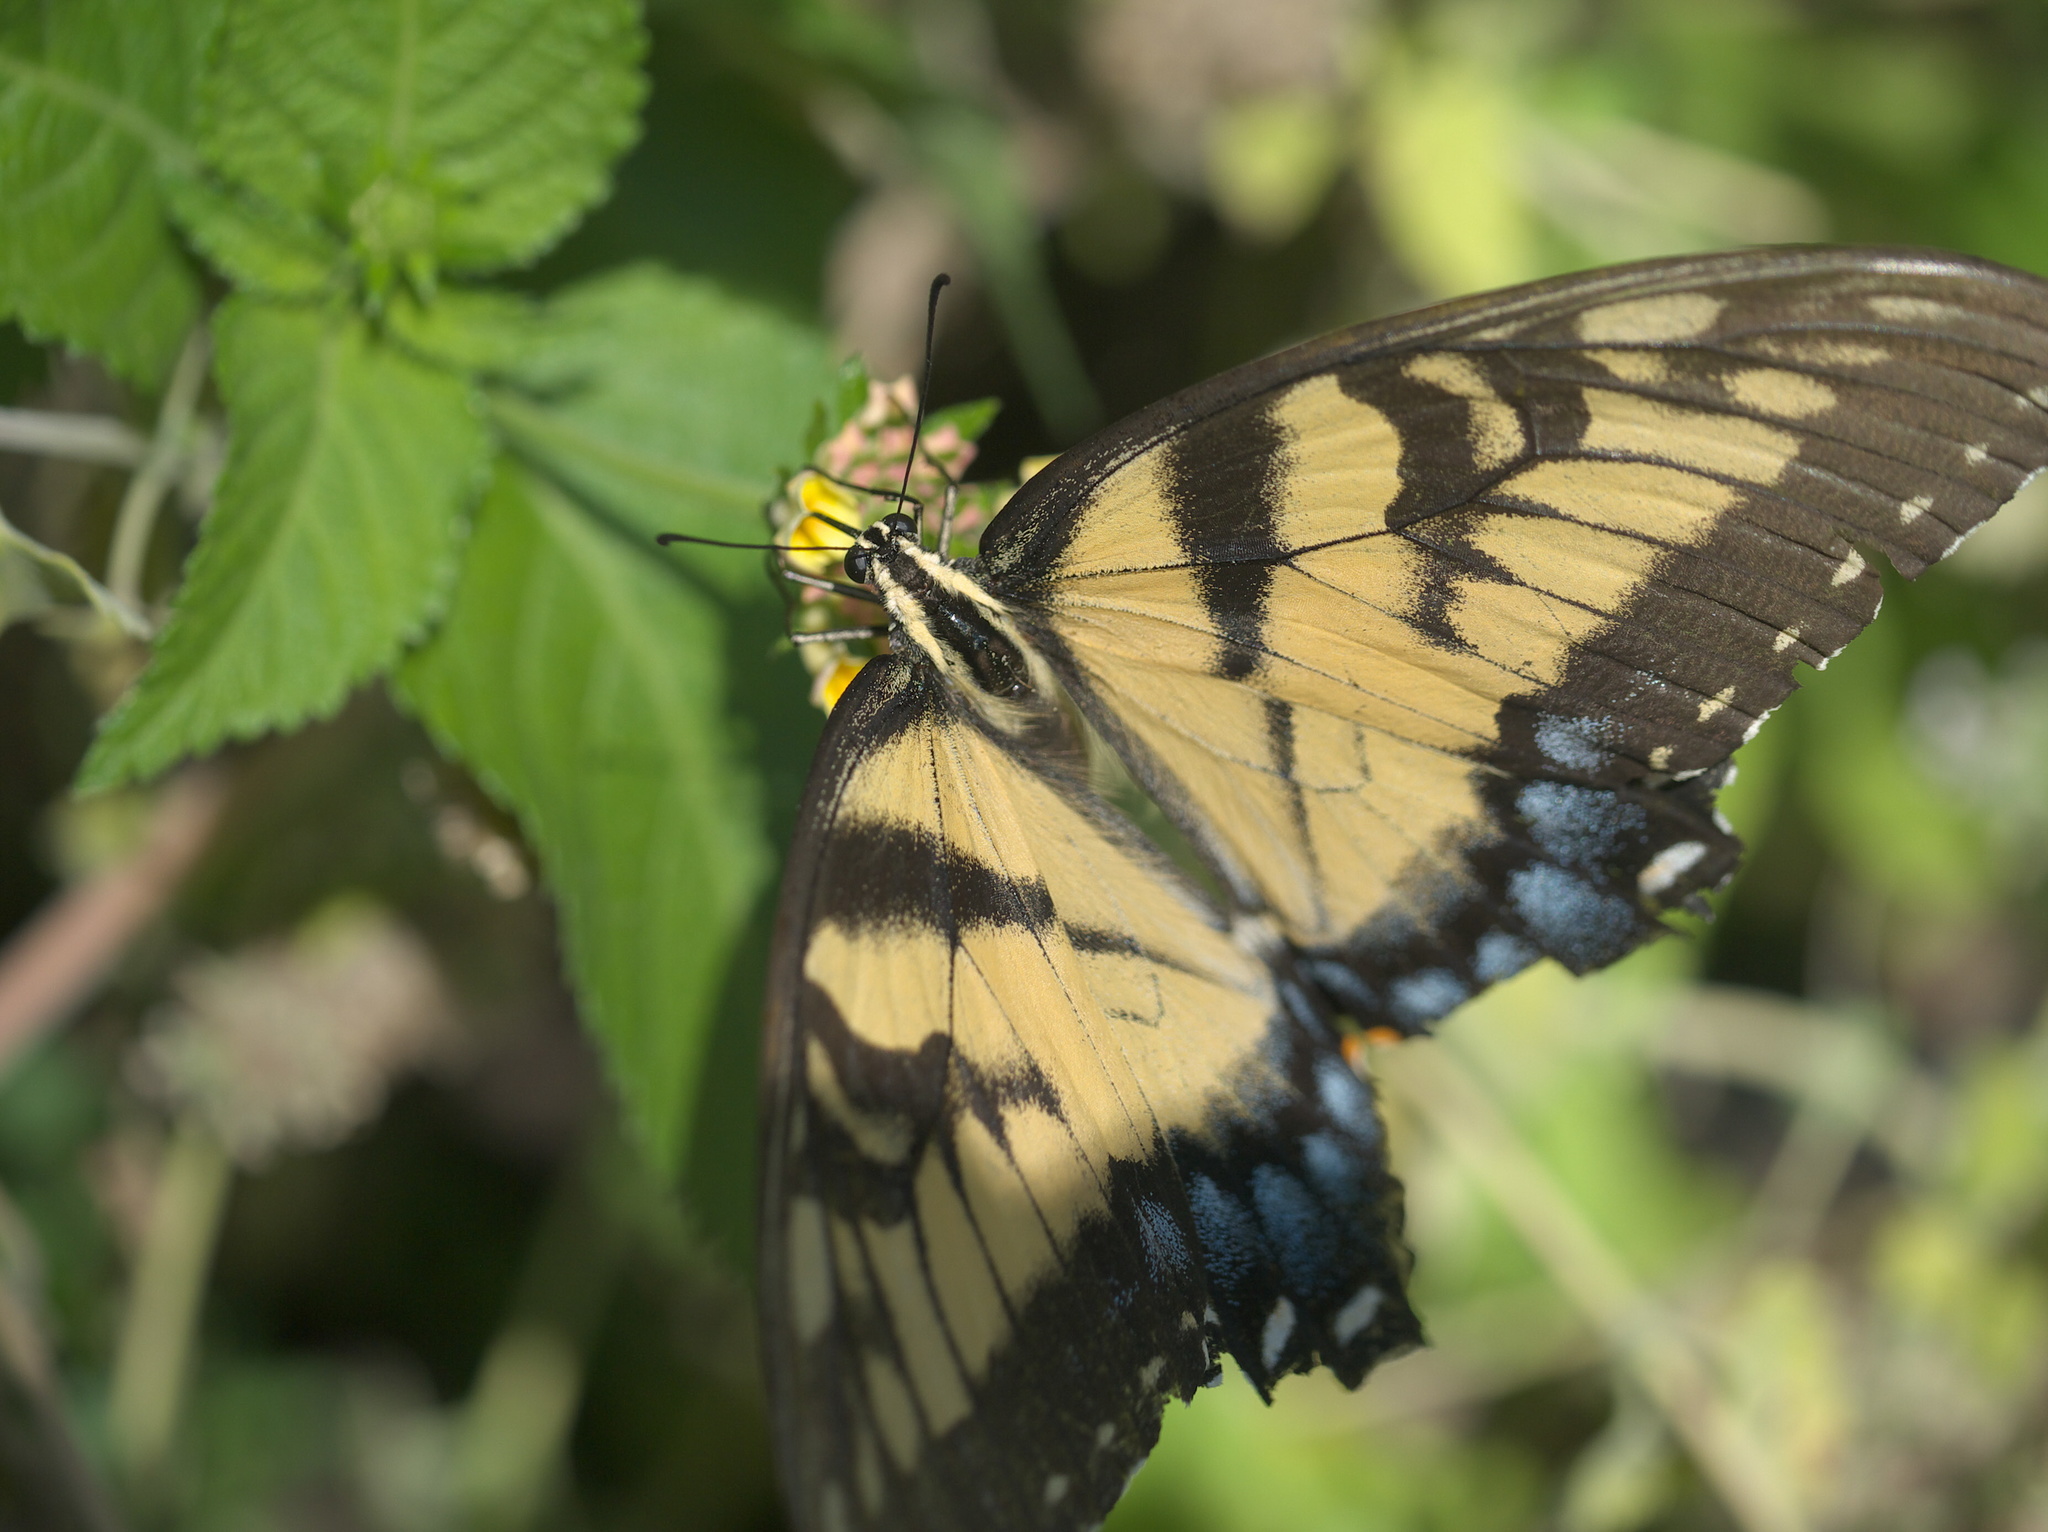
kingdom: Animalia
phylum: Arthropoda
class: Insecta
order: Lepidoptera
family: Papilionidae
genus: Papilio
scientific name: Papilio glaucus
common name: Tiger swallowtail
